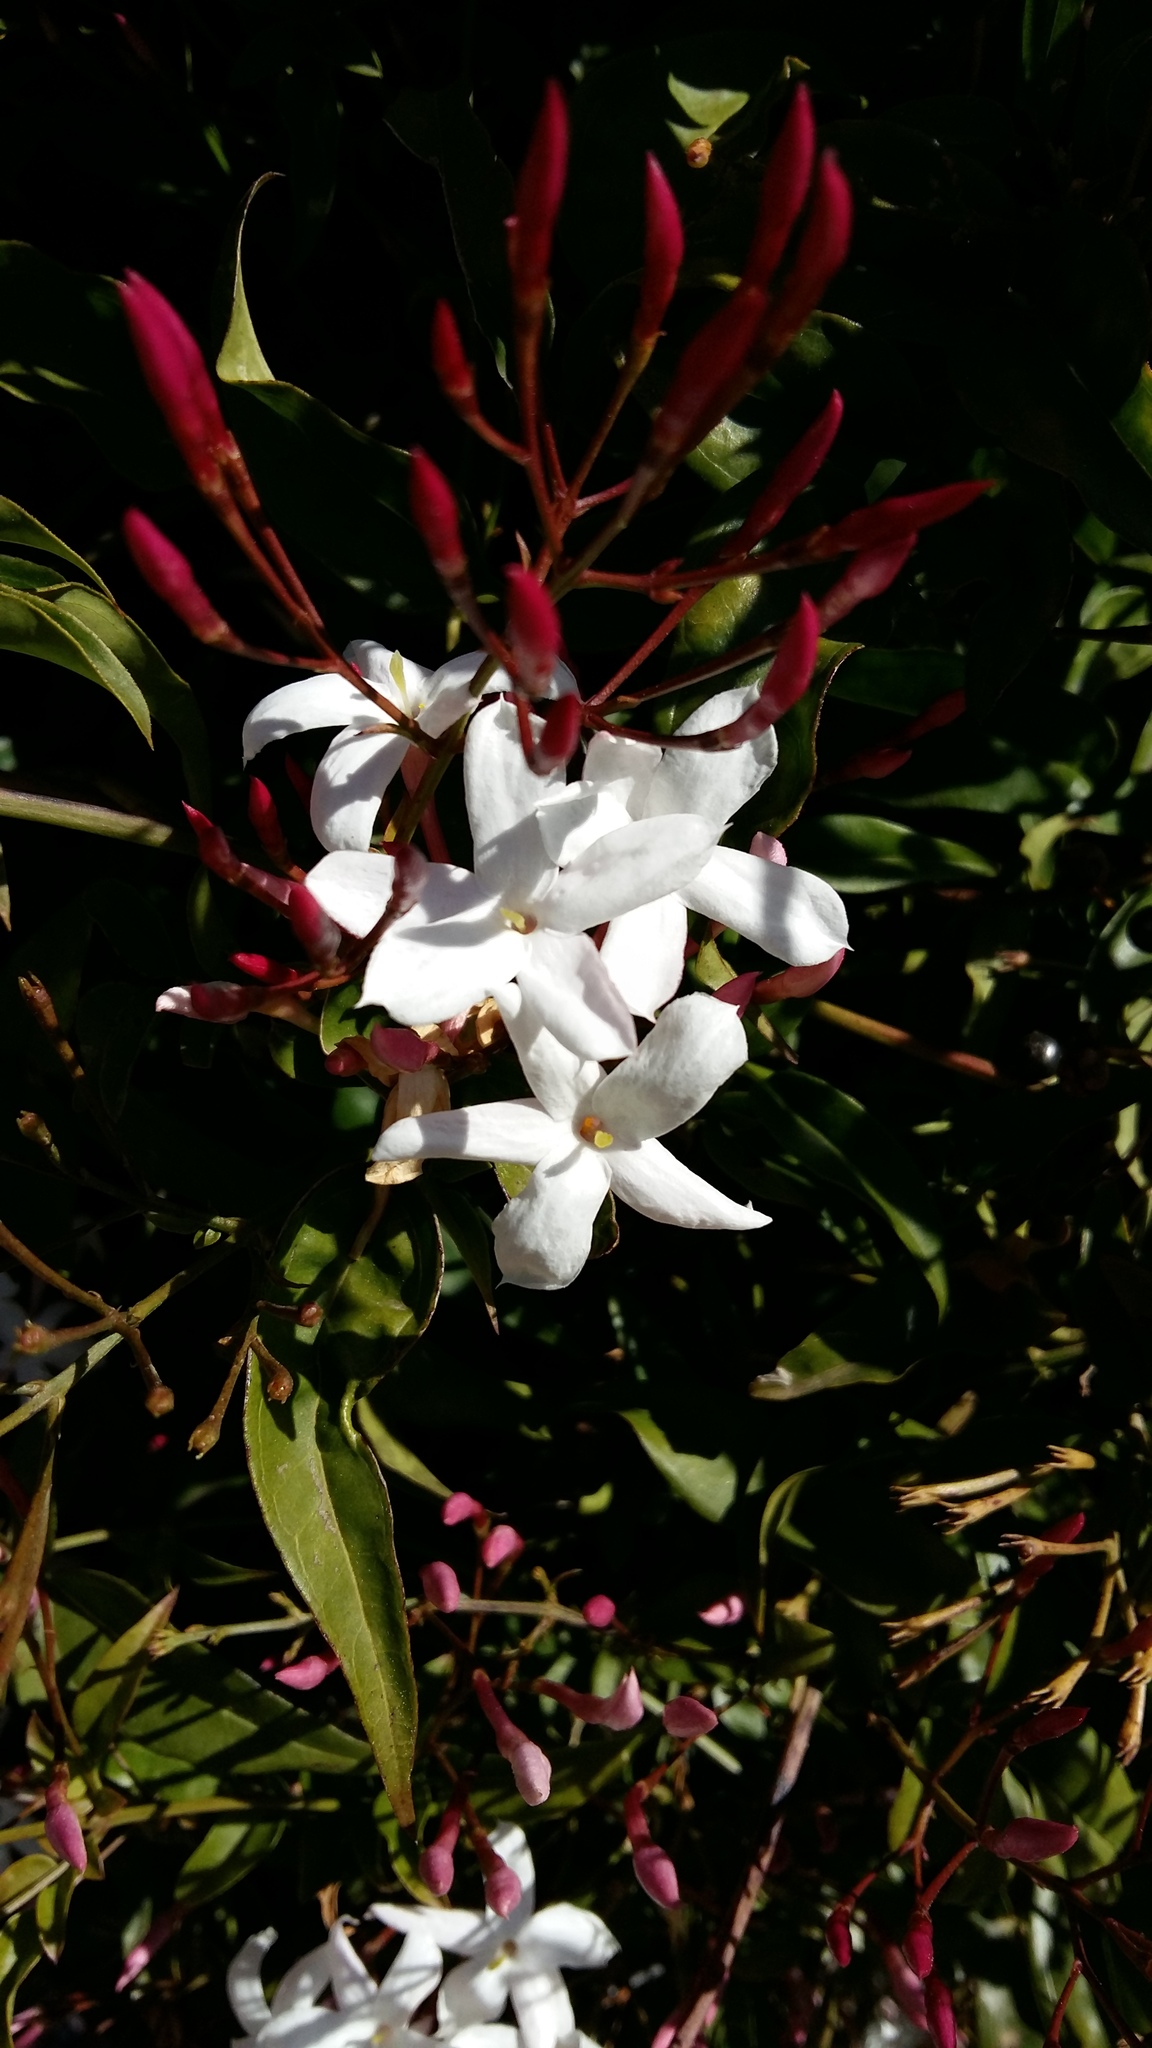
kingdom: Plantae
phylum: Tracheophyta
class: Magnoliopsida
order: Lamiales
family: Oleaceae
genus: Jasminum
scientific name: Jasminum polyanthum
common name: Pink jasmine
